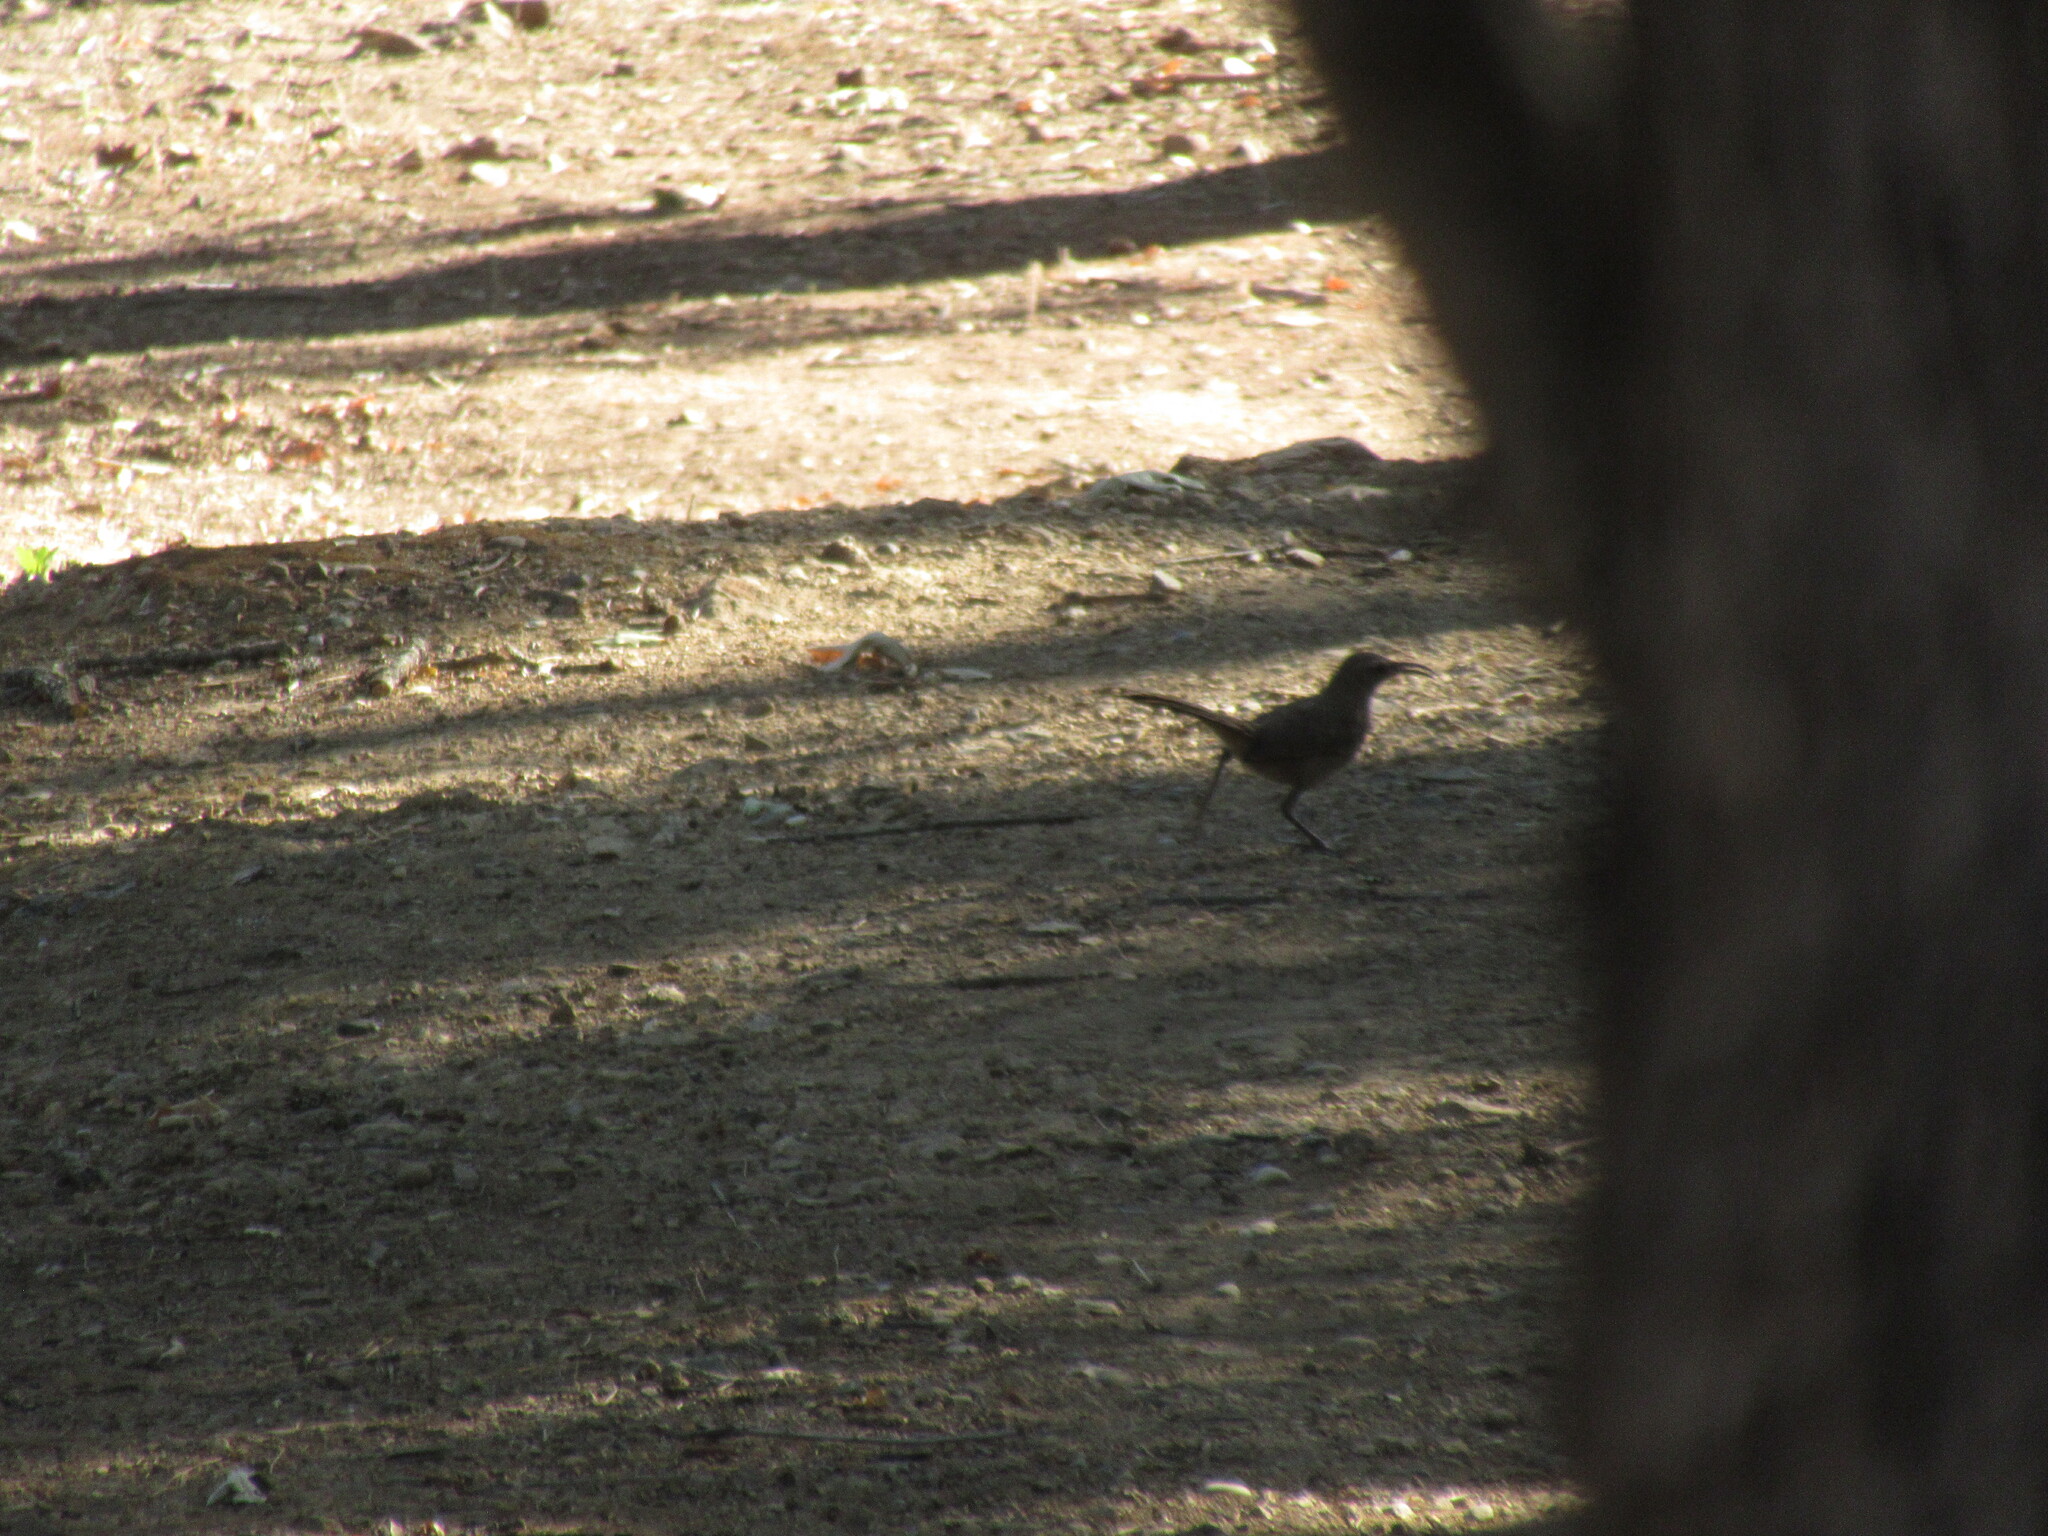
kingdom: Animalia
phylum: Chordata
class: Aves
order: Passeriformes
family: Mimidae
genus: Toxostoma
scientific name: Toxostoma redivivum
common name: California thrasher
